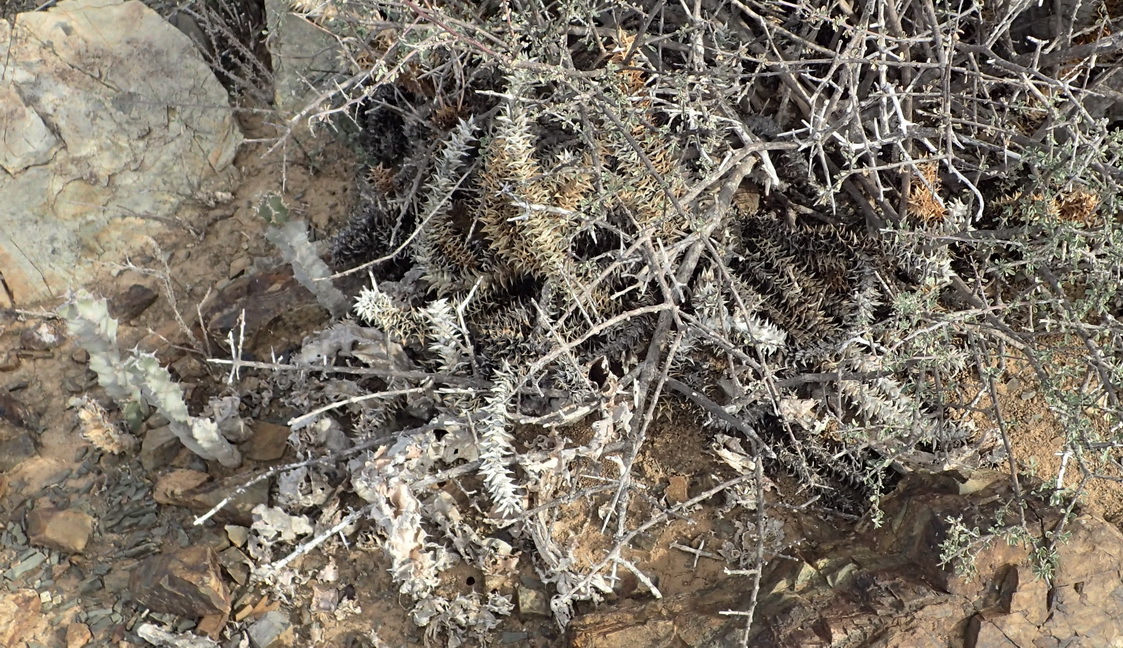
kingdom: Plantae
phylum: Tracheophyta
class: Liliopsida
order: Asparagales
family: Asphodelaceae
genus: Astroloba
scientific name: Astroloba foliolosa
